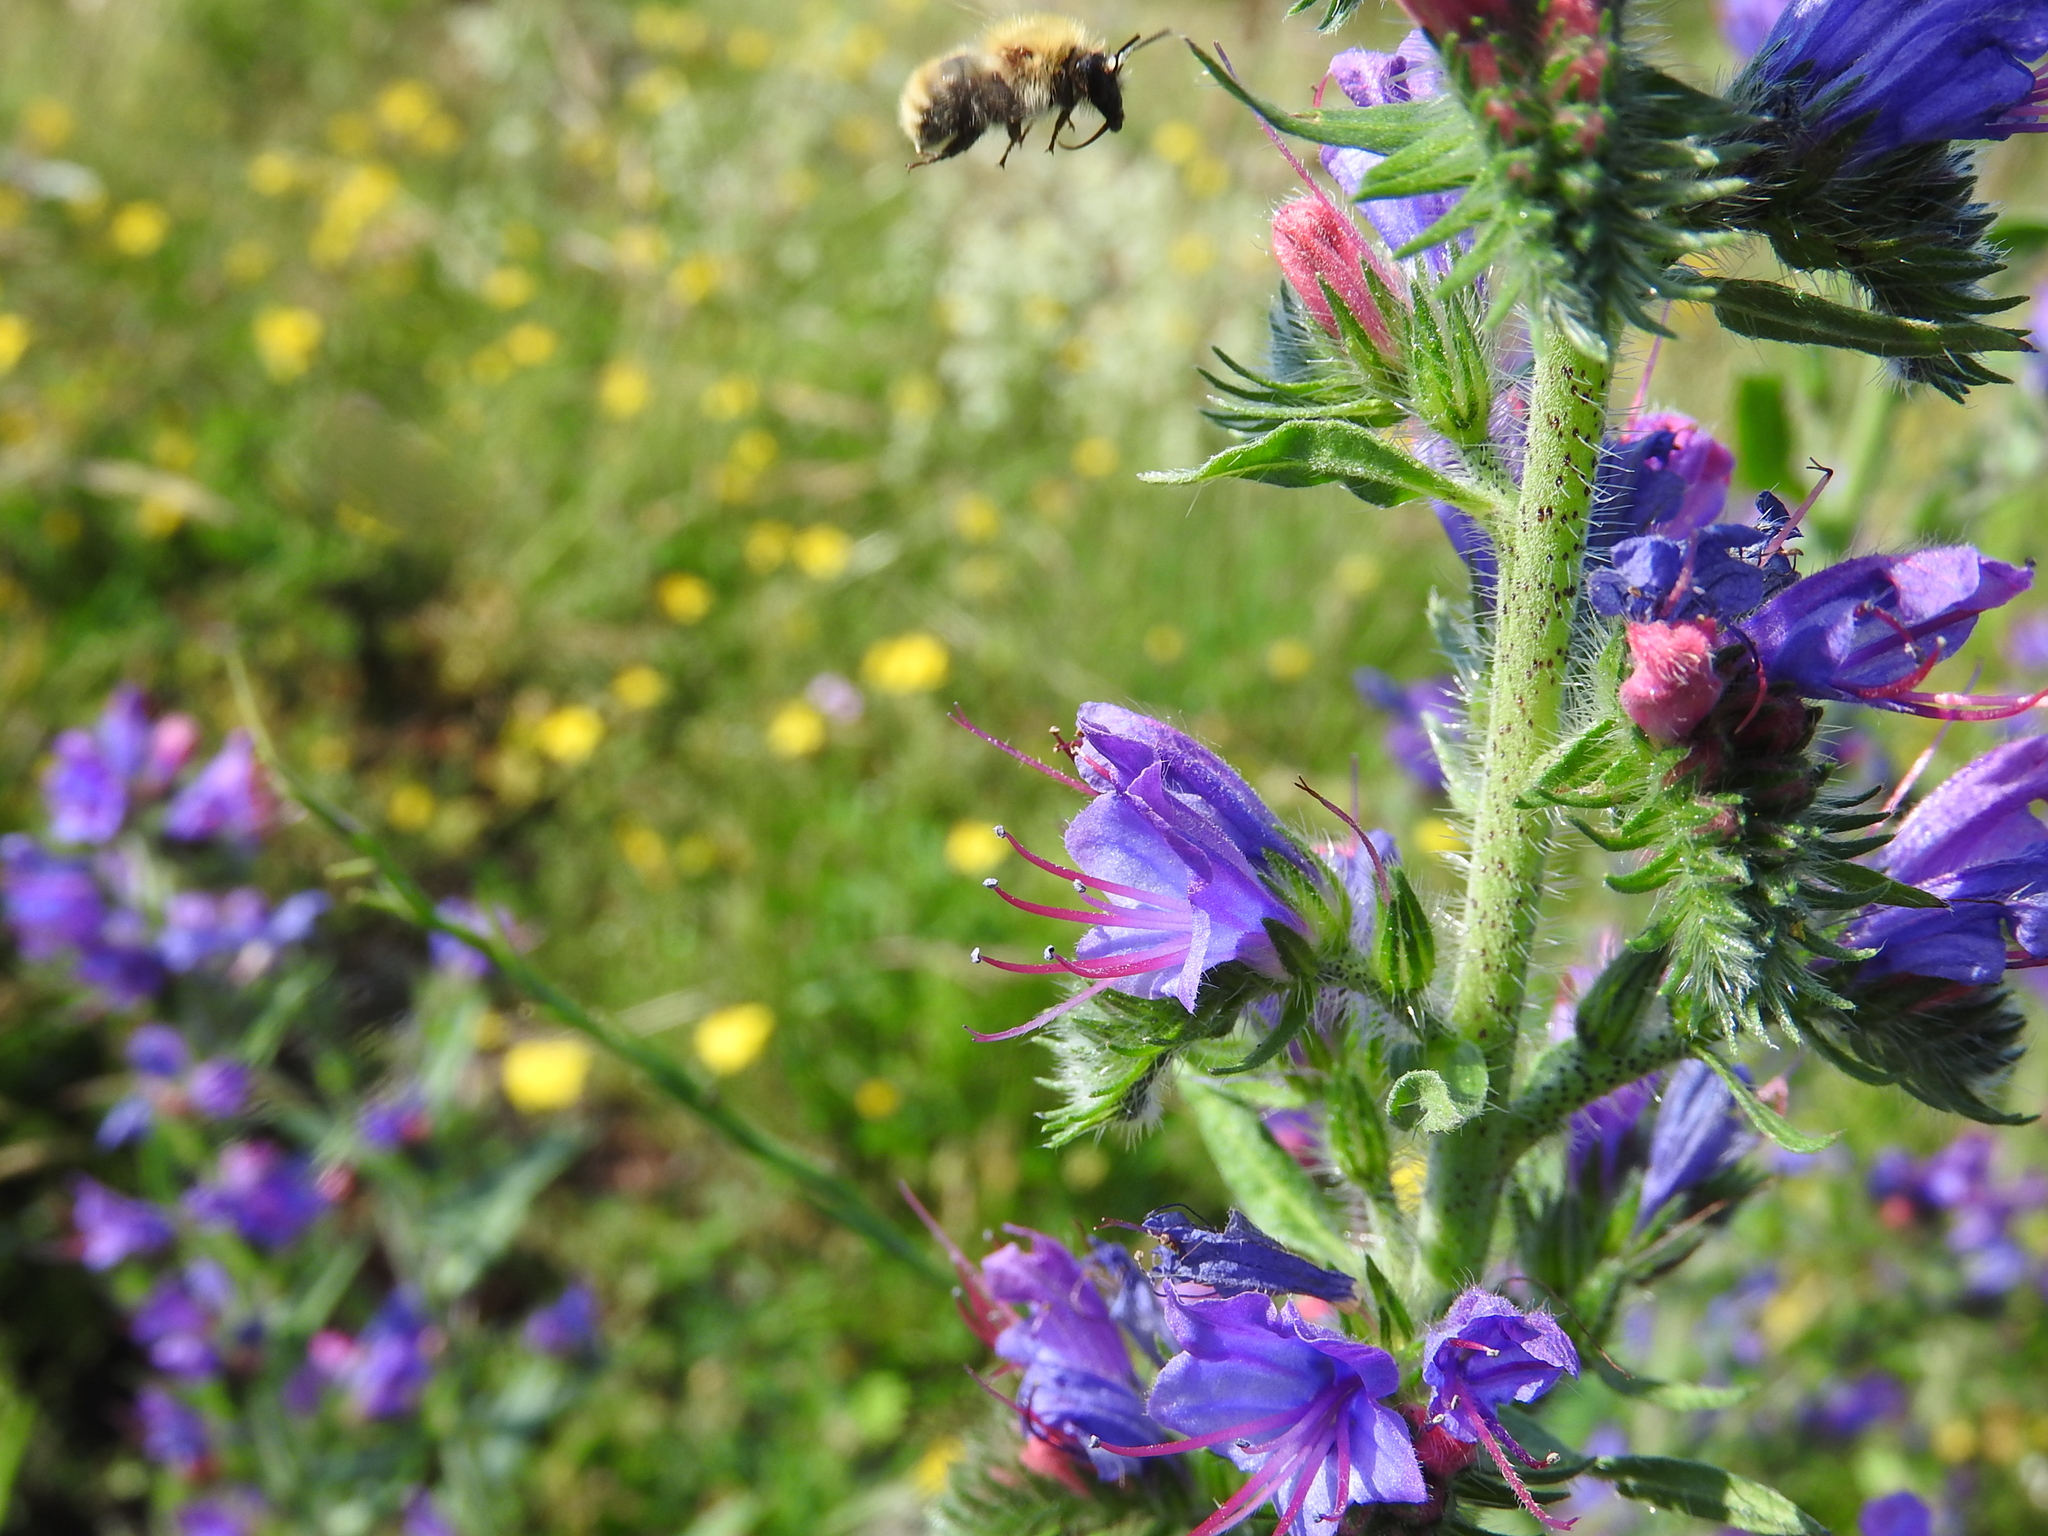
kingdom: Plantae
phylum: Tracheophyta
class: Magnoliopsida
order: Boraginales
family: Boraginaceae
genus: Echium
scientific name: Echium vulgare
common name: Common viper's bugloss
